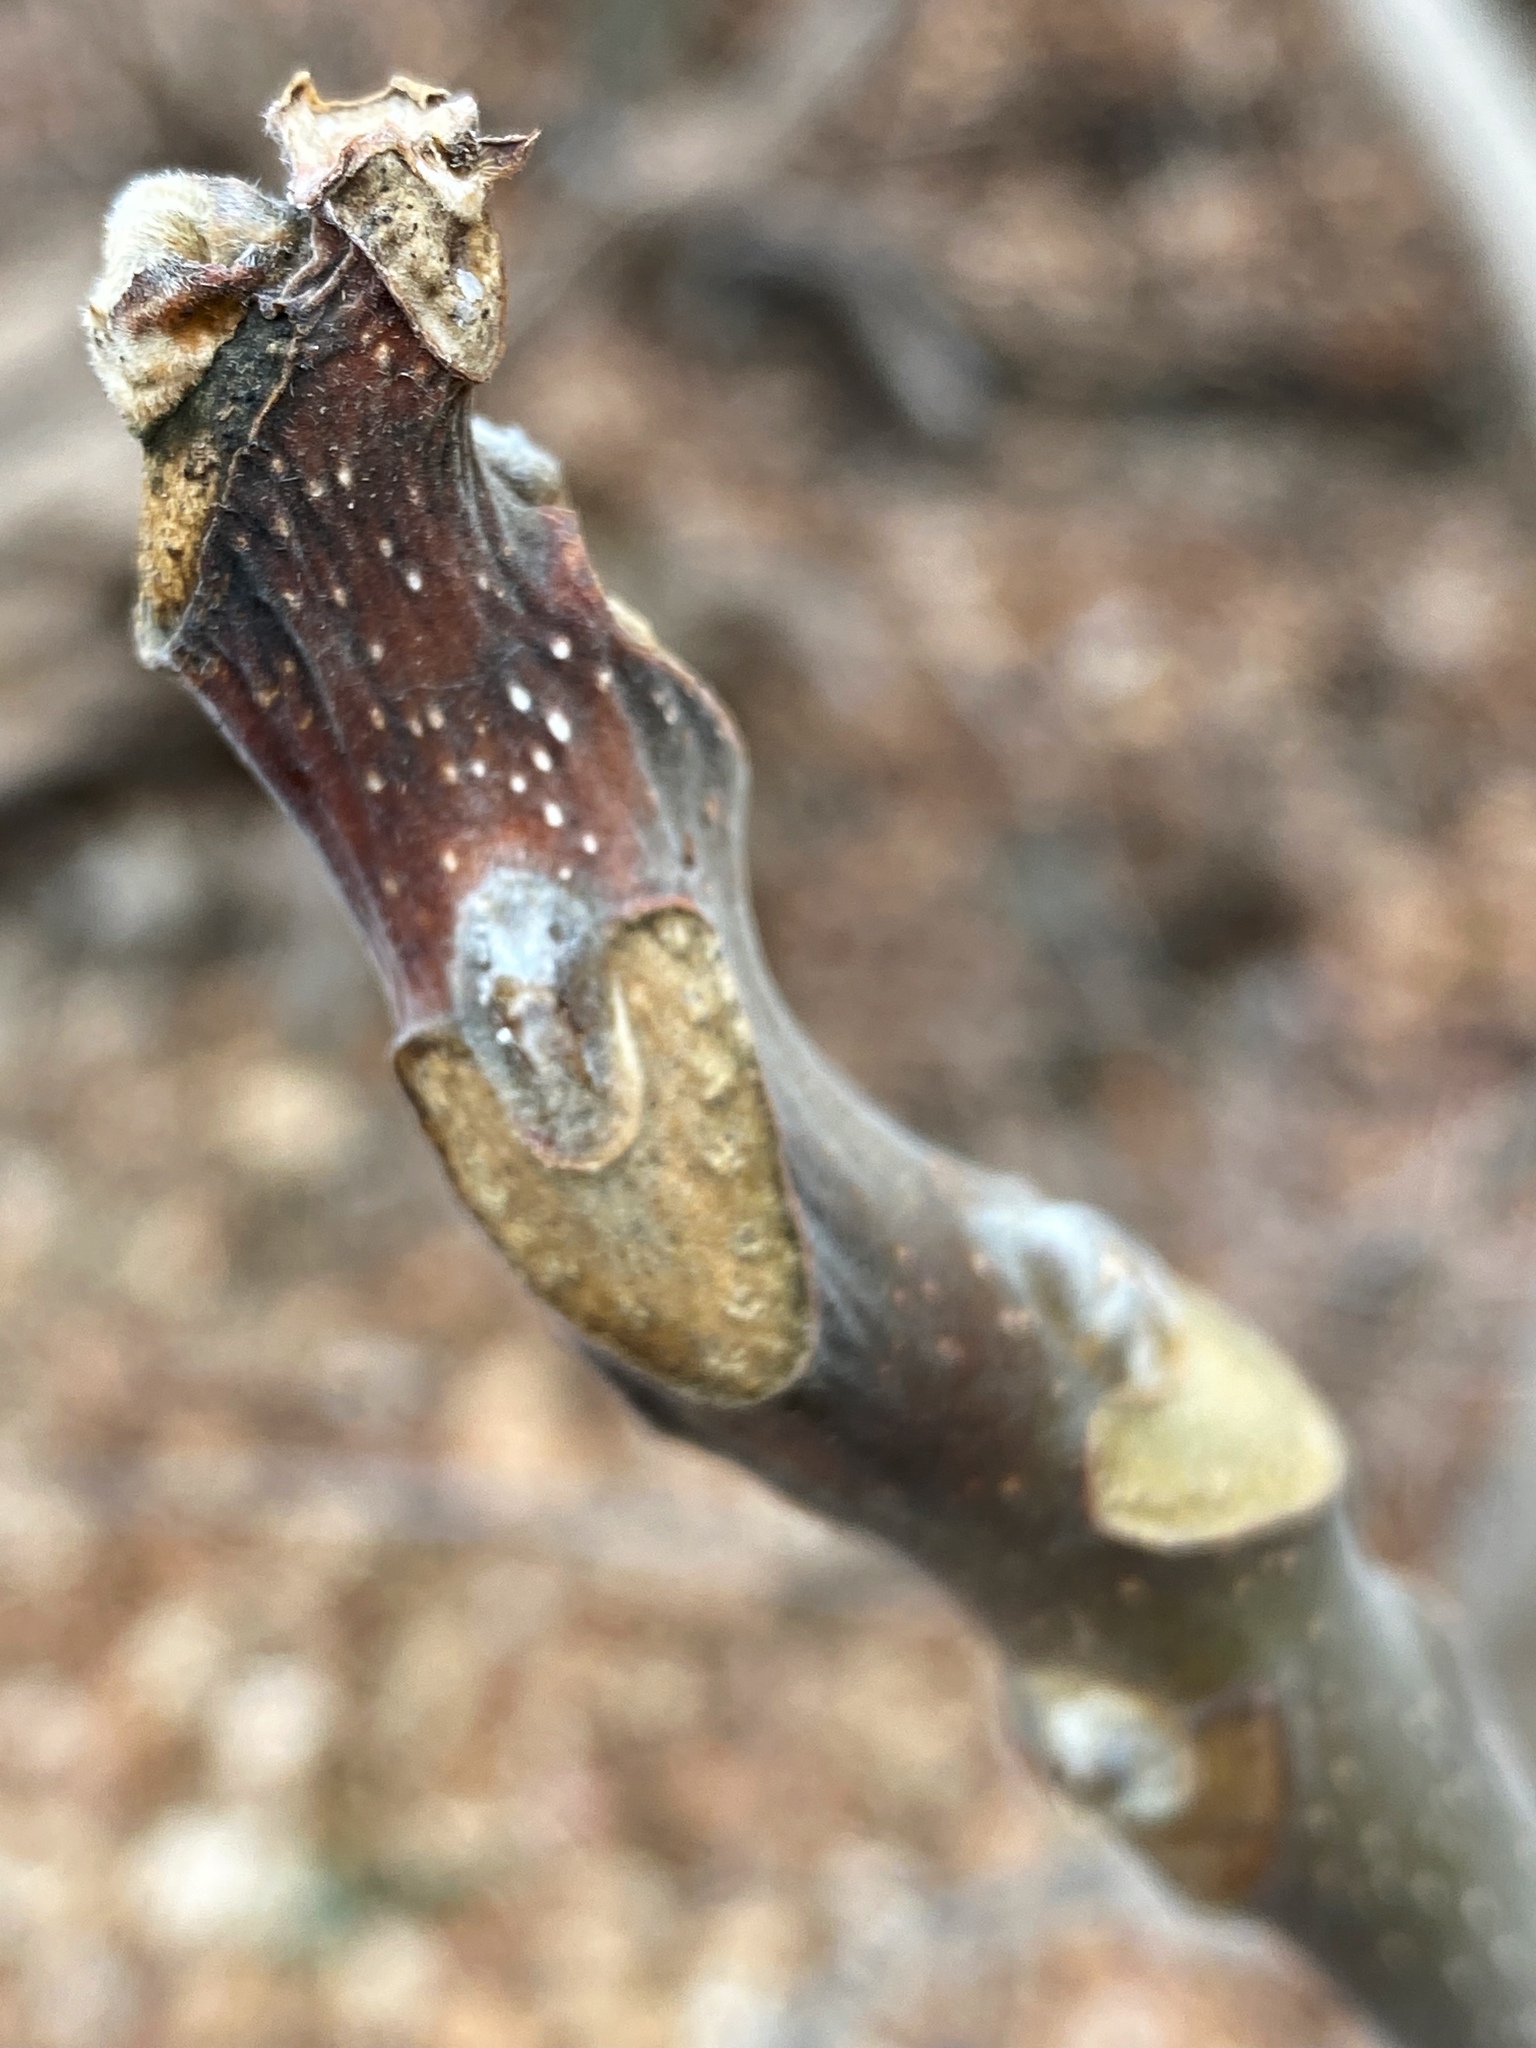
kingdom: Plantae
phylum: Tracheophyta
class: Magnoliopsida
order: Sapindales
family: Simaroubaceae
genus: Ailanthus
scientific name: Ailanthus altissima
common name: Tree-of-heaven
